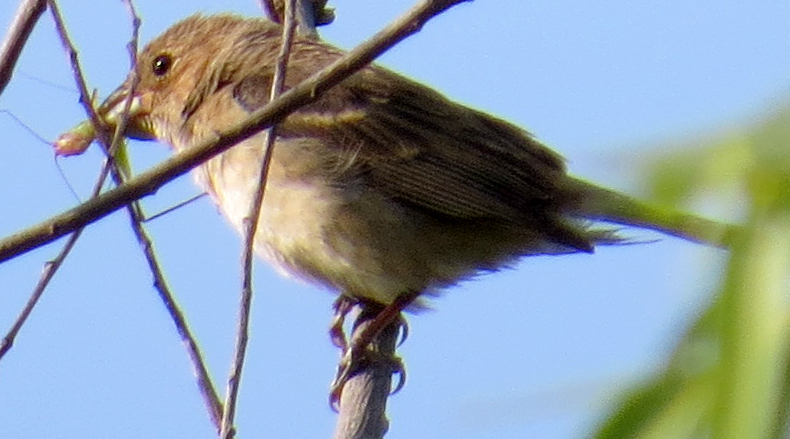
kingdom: Animalia
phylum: Chordata
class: Aves
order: Passeriformes
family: Cardinalidae
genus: Passerina
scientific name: Passerina cyanea
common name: Indigo bunting
